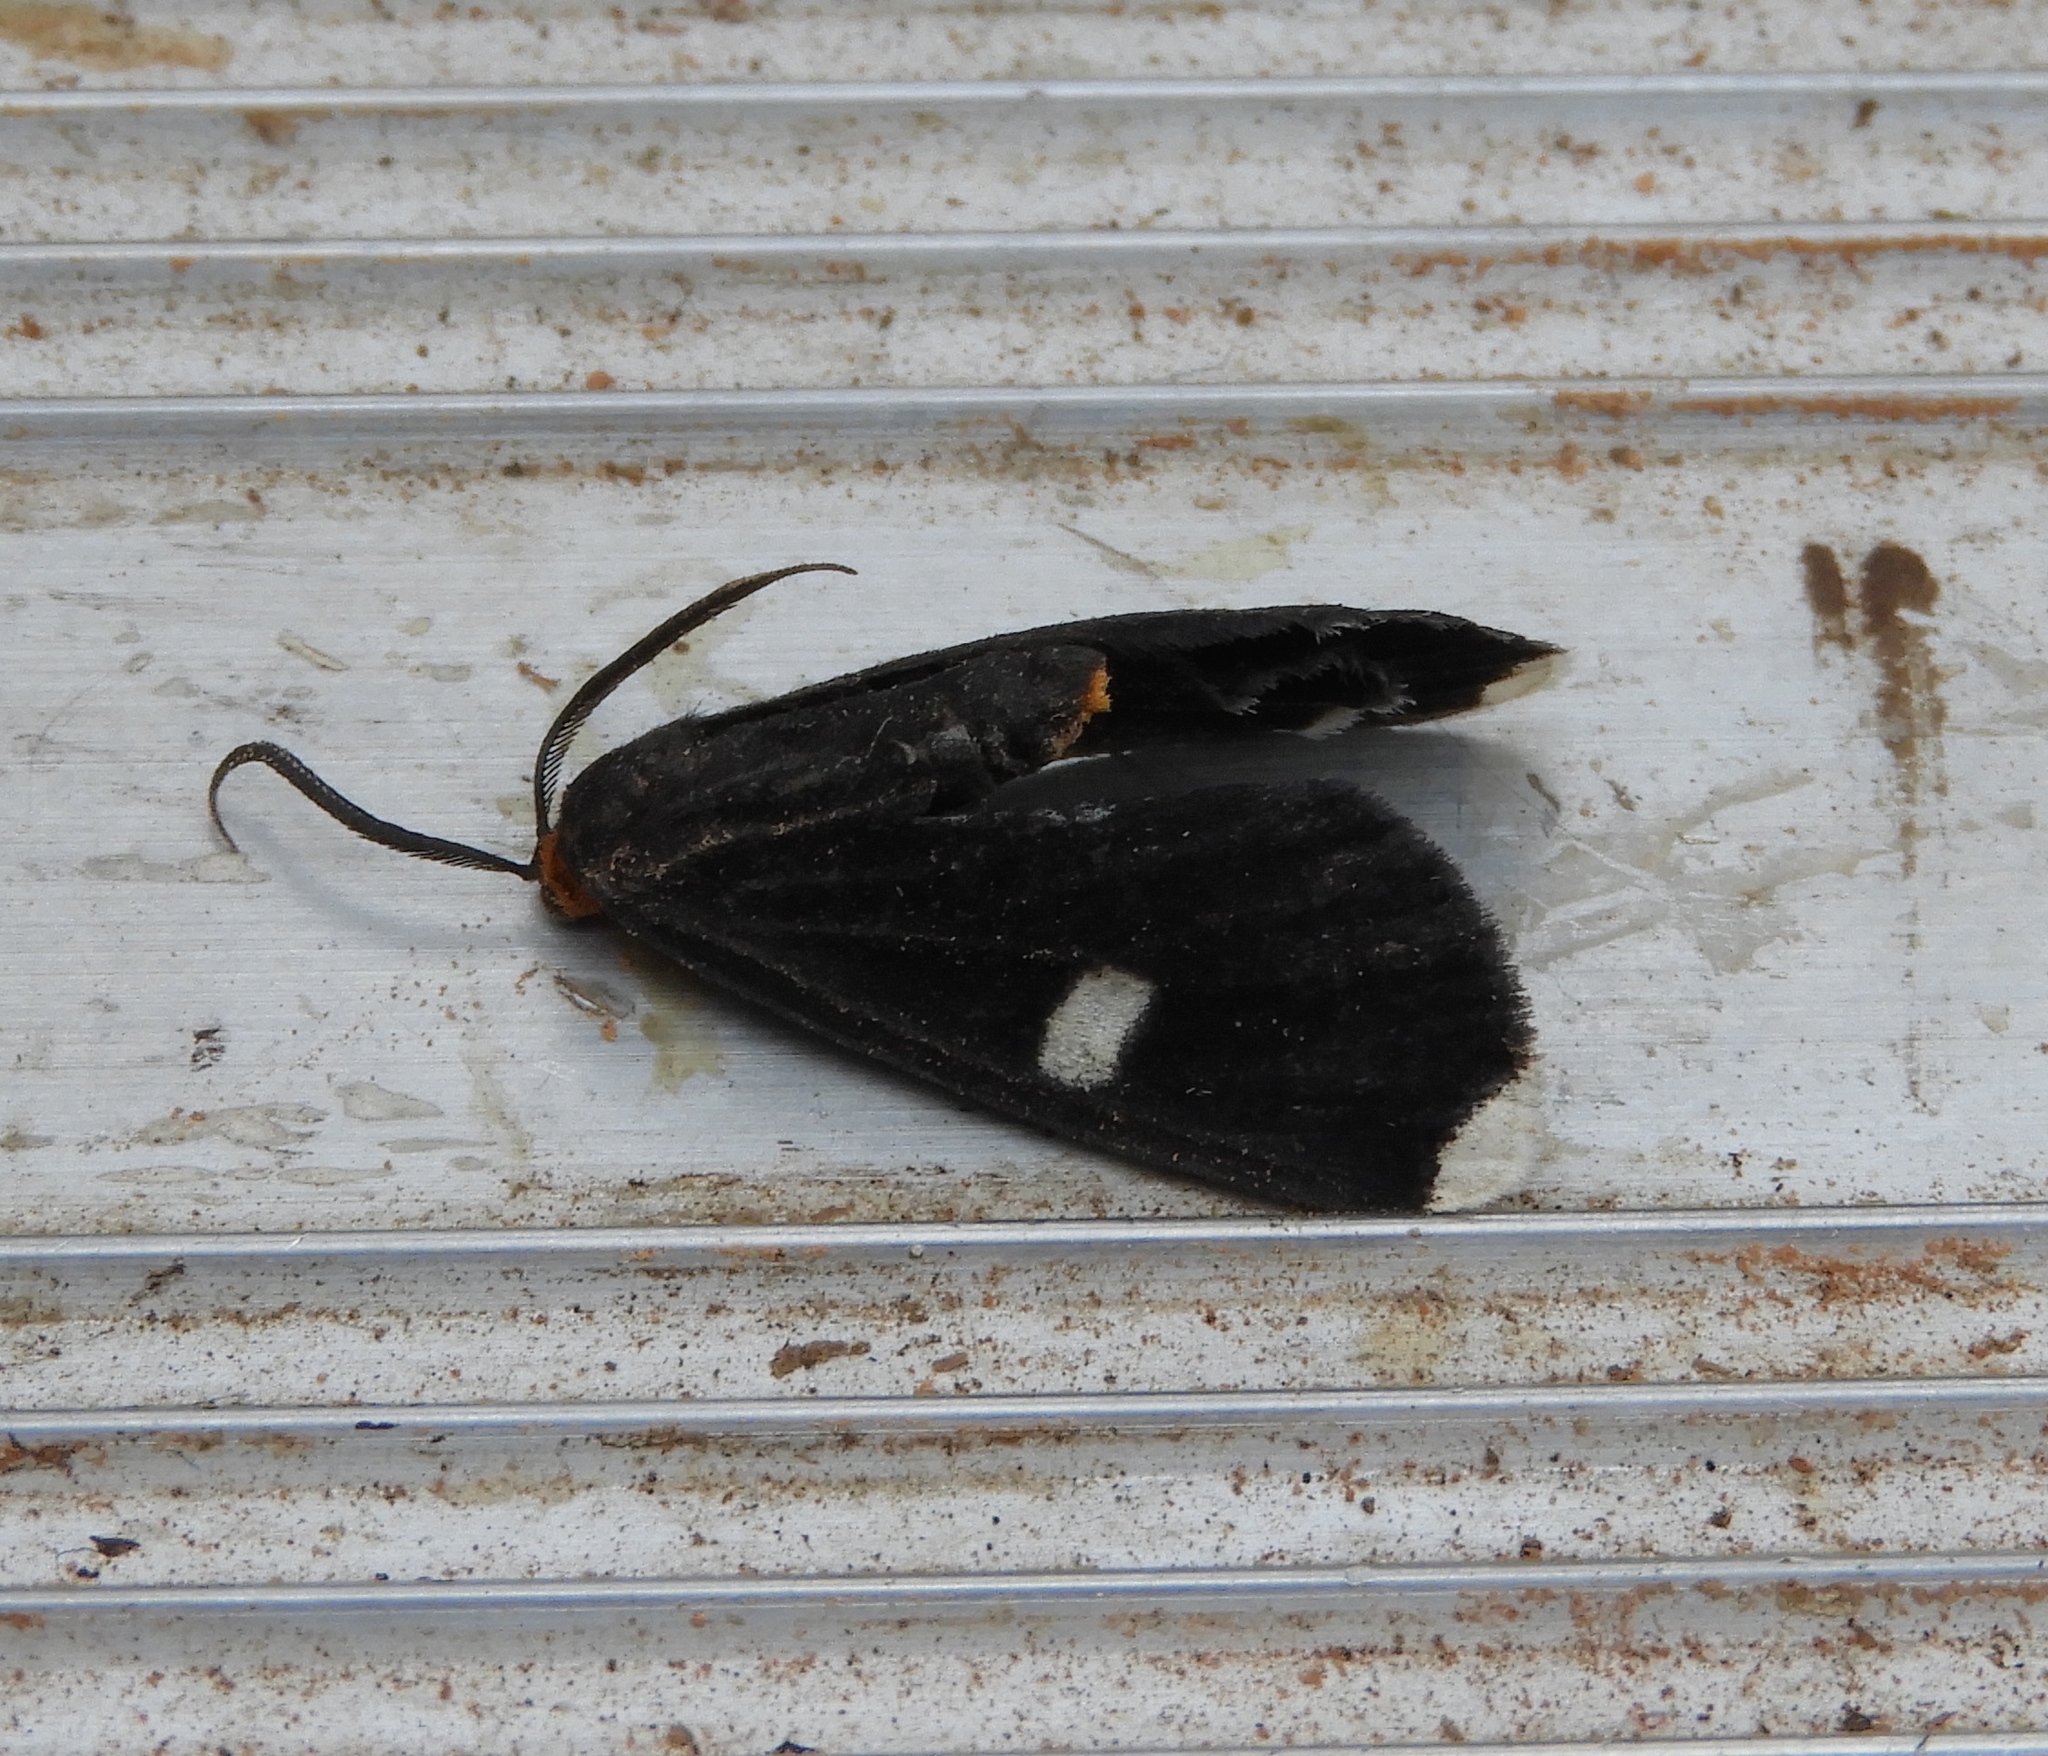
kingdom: Animalia
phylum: Arthropoda
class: Insecta
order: Lepidoptera
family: Geometridae
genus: Melanchroia
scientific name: Melanchroia vazquezae
